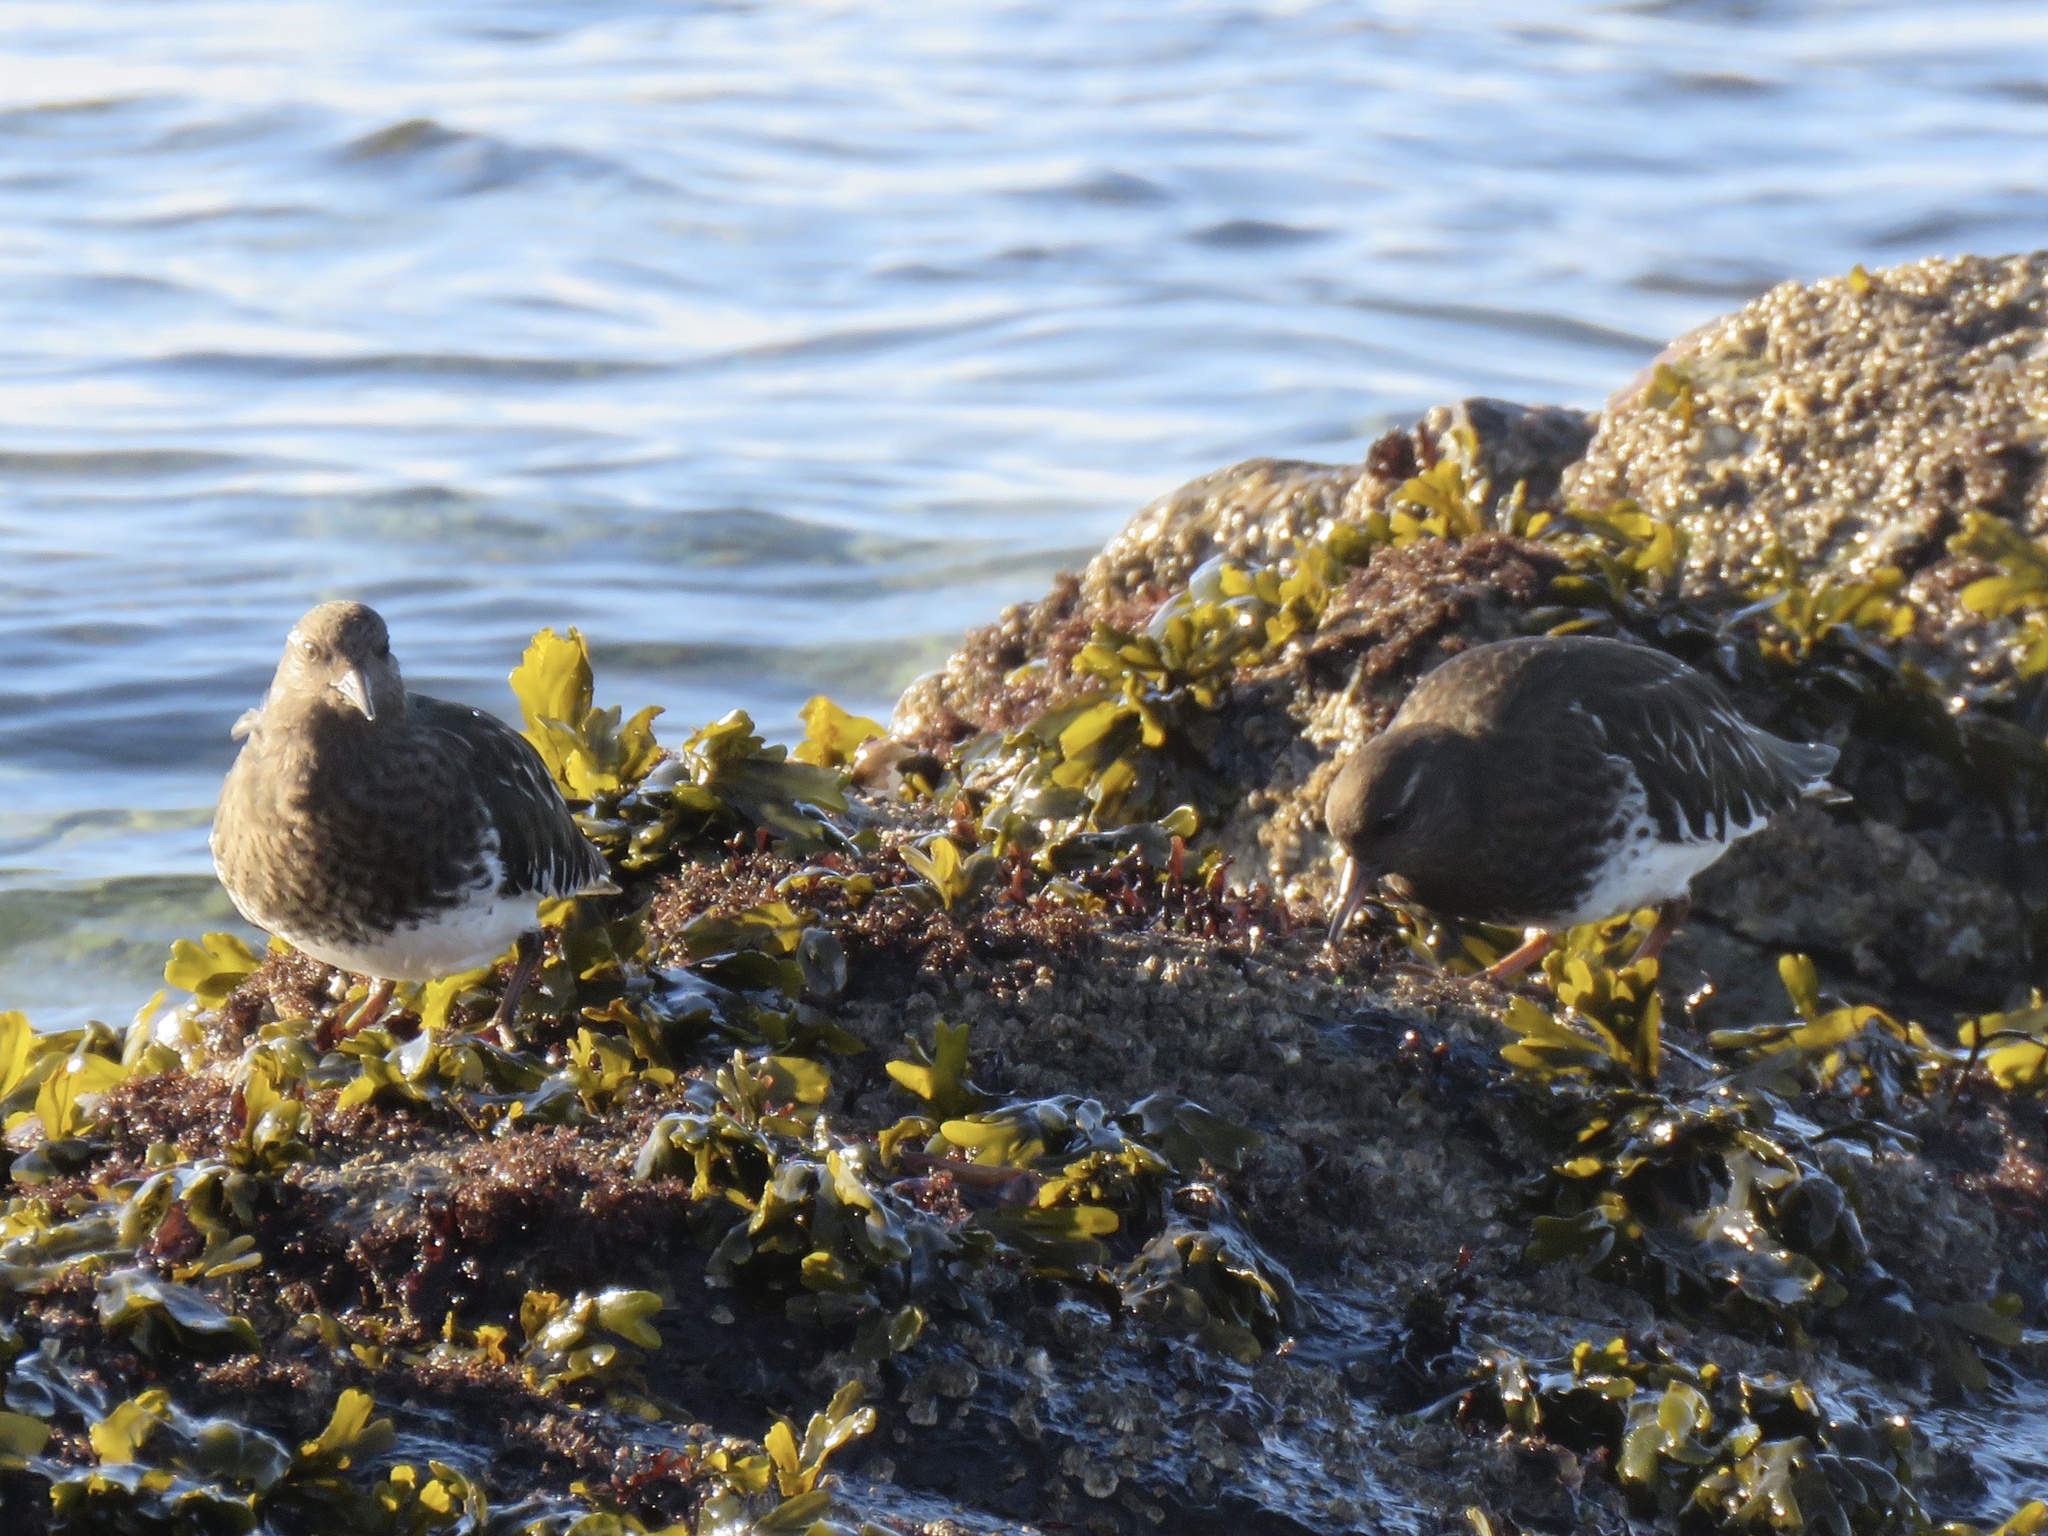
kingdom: Animalia
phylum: Chordata
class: Aves
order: Charadriiformes
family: Scolopacidae
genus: Arenaria
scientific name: Arenaria melanocephala
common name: Black turnstone
